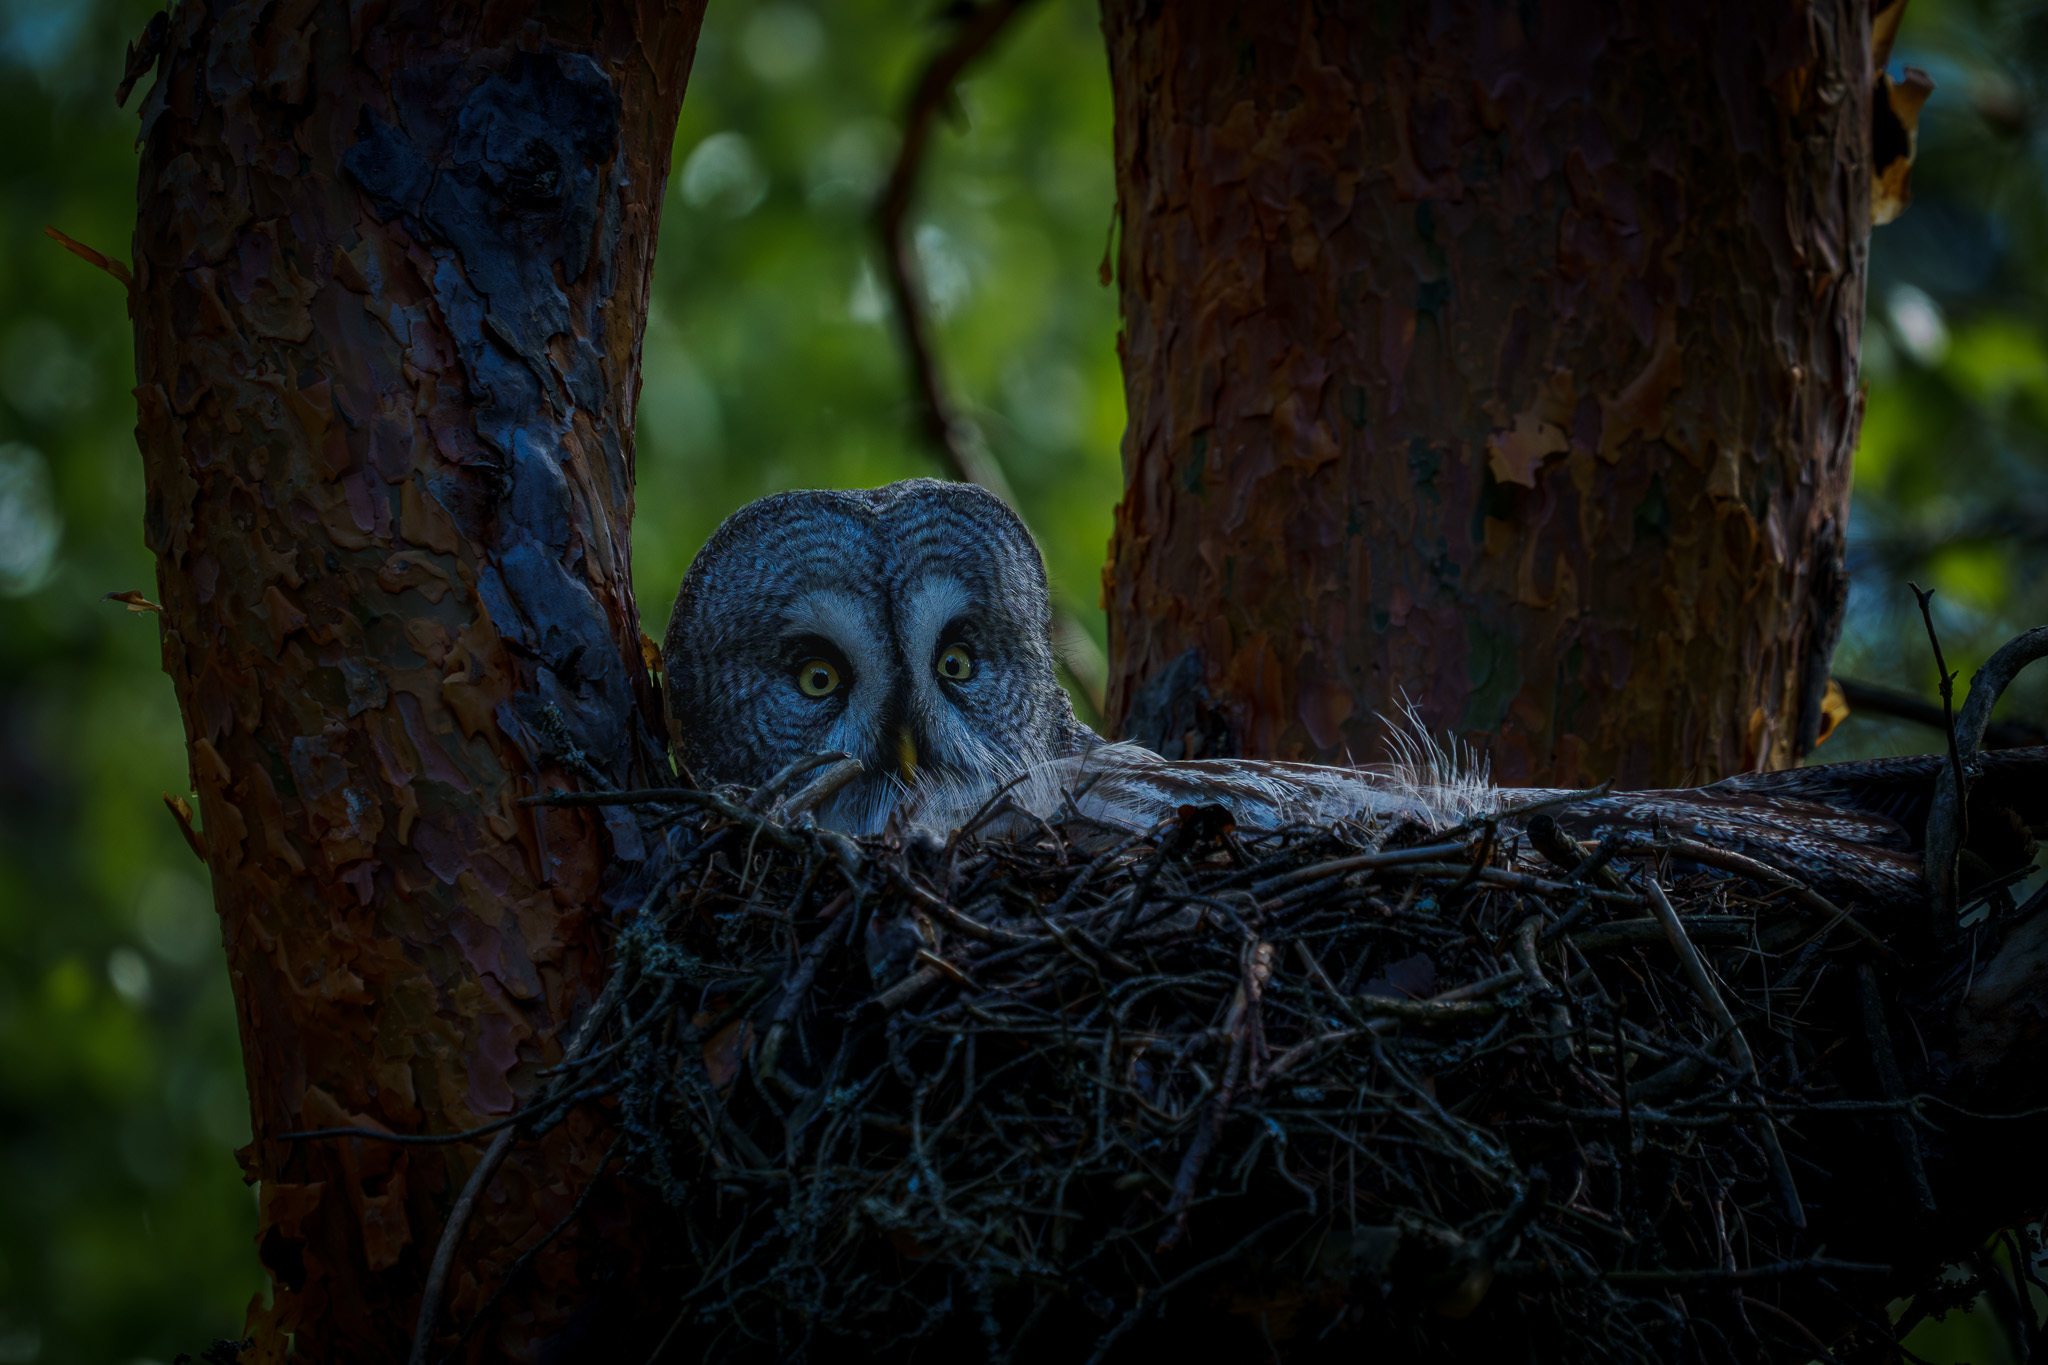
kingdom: Animalia
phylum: Chordata
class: Aves
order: Strigiformes
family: Strigidae
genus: Strix
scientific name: Strix nebulosa
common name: Great grey owl
